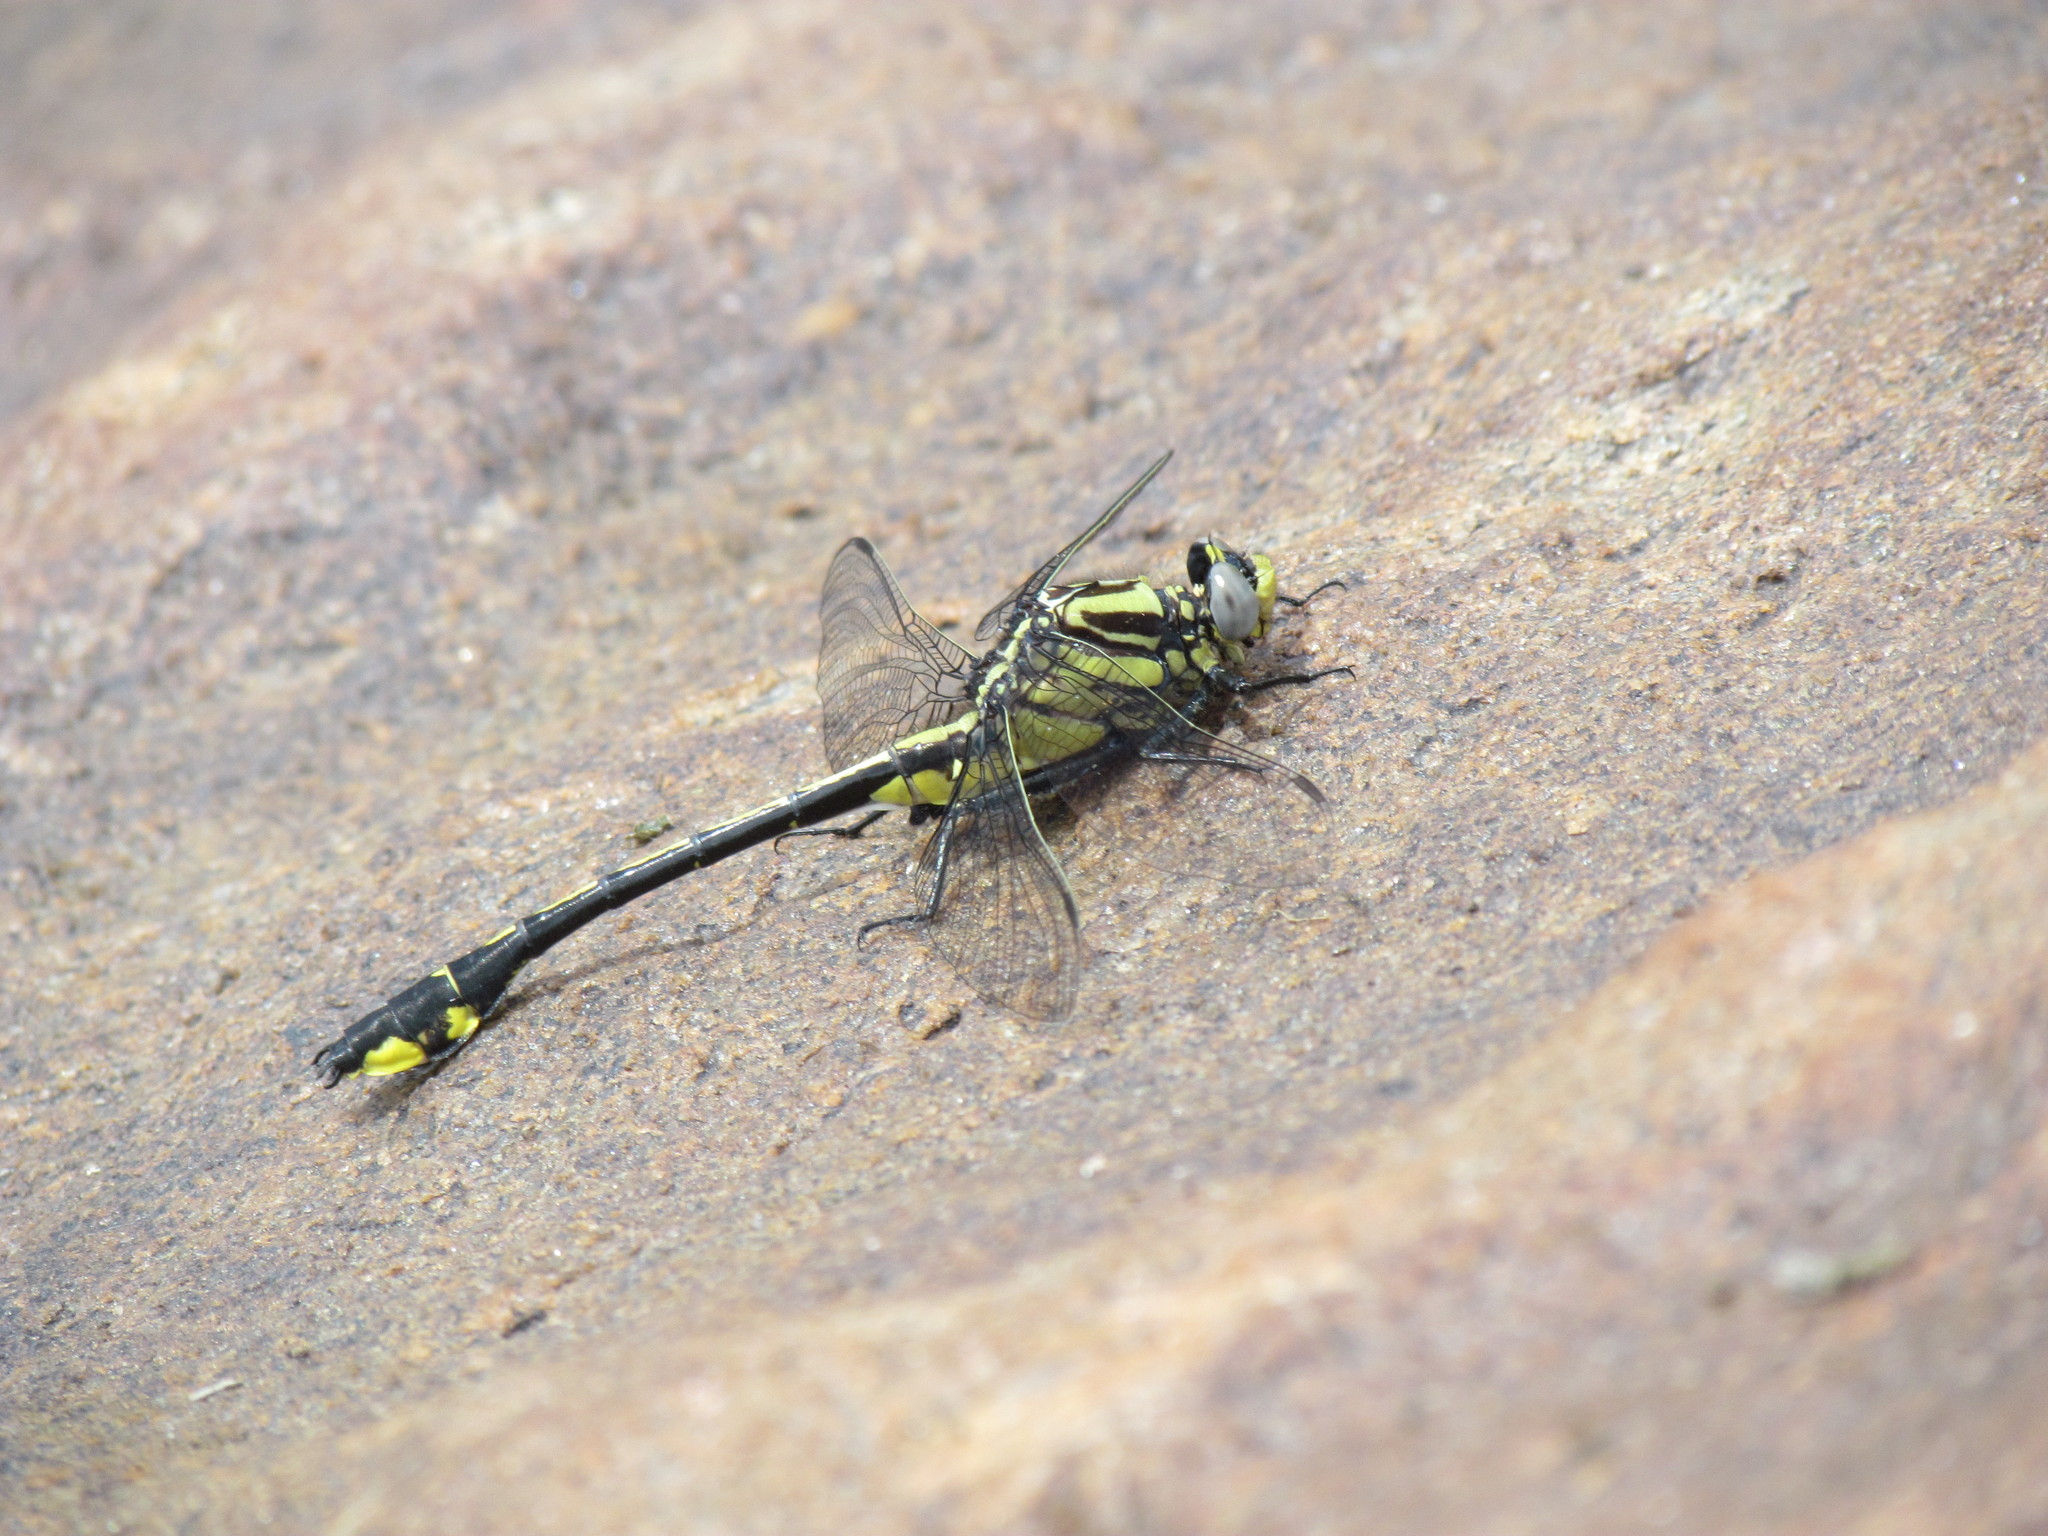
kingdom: Animalia
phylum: Arthropoda
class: Insecta
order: Odonata
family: Gomphidae
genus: Gomphurus
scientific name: Gomphurus fraternus
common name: Midland clubtail
